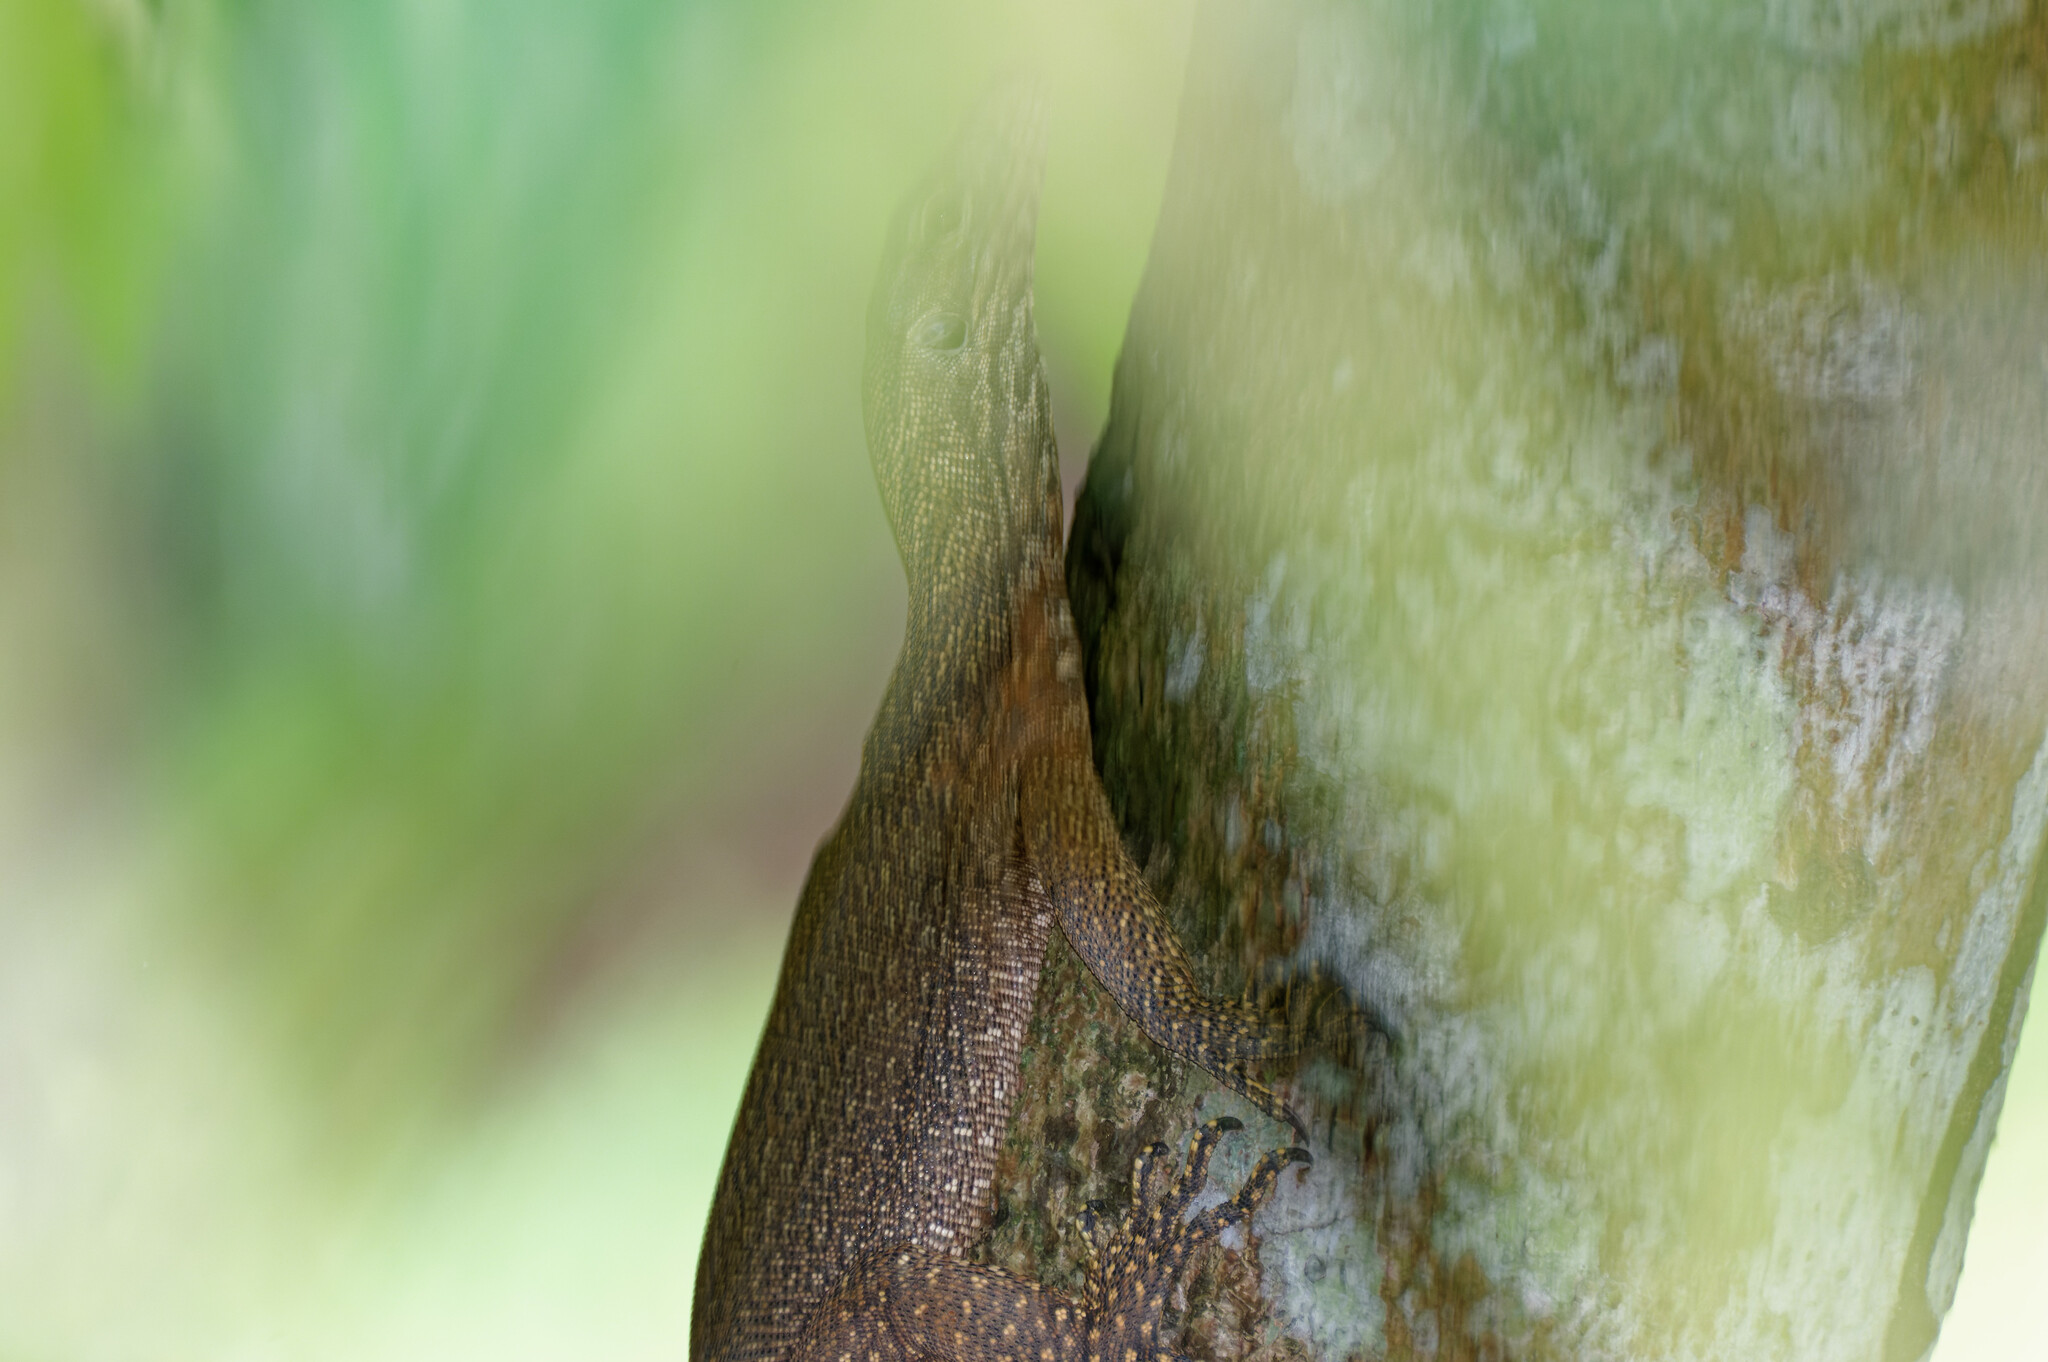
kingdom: Animalia
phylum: Chordata
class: Squamata
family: Varanidae
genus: Varanus
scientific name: Varanus nebulosus
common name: Clouded monitor
